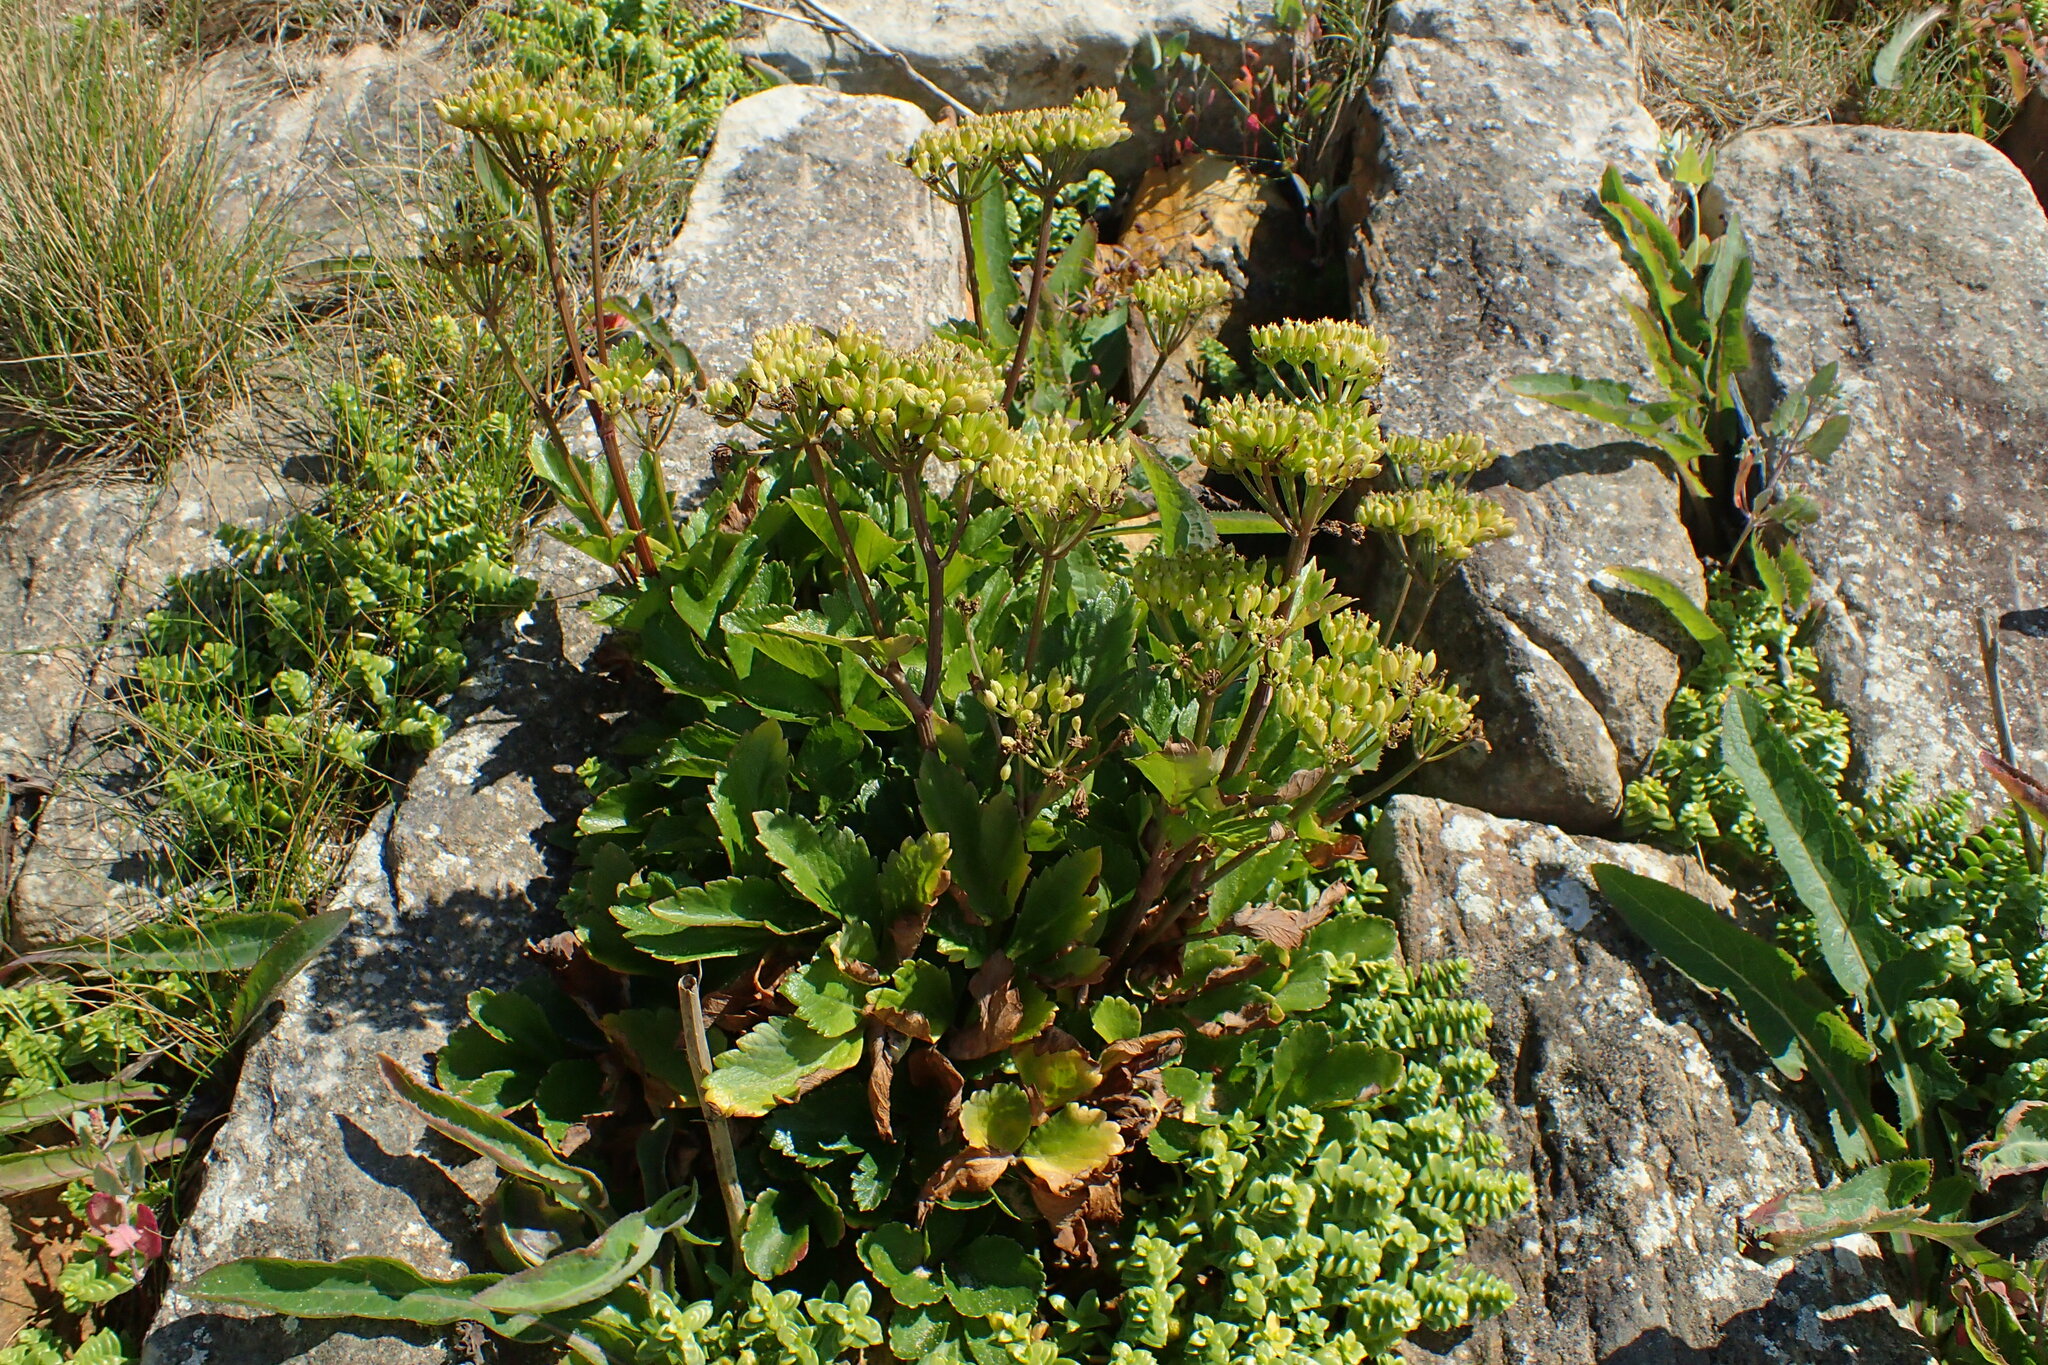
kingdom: Plantae
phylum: Tracheophyta
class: Magnoliopsida
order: Apiales
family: Apiaceae
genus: Ligusticum
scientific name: Ligusticum scothicum
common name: Beach lovage
